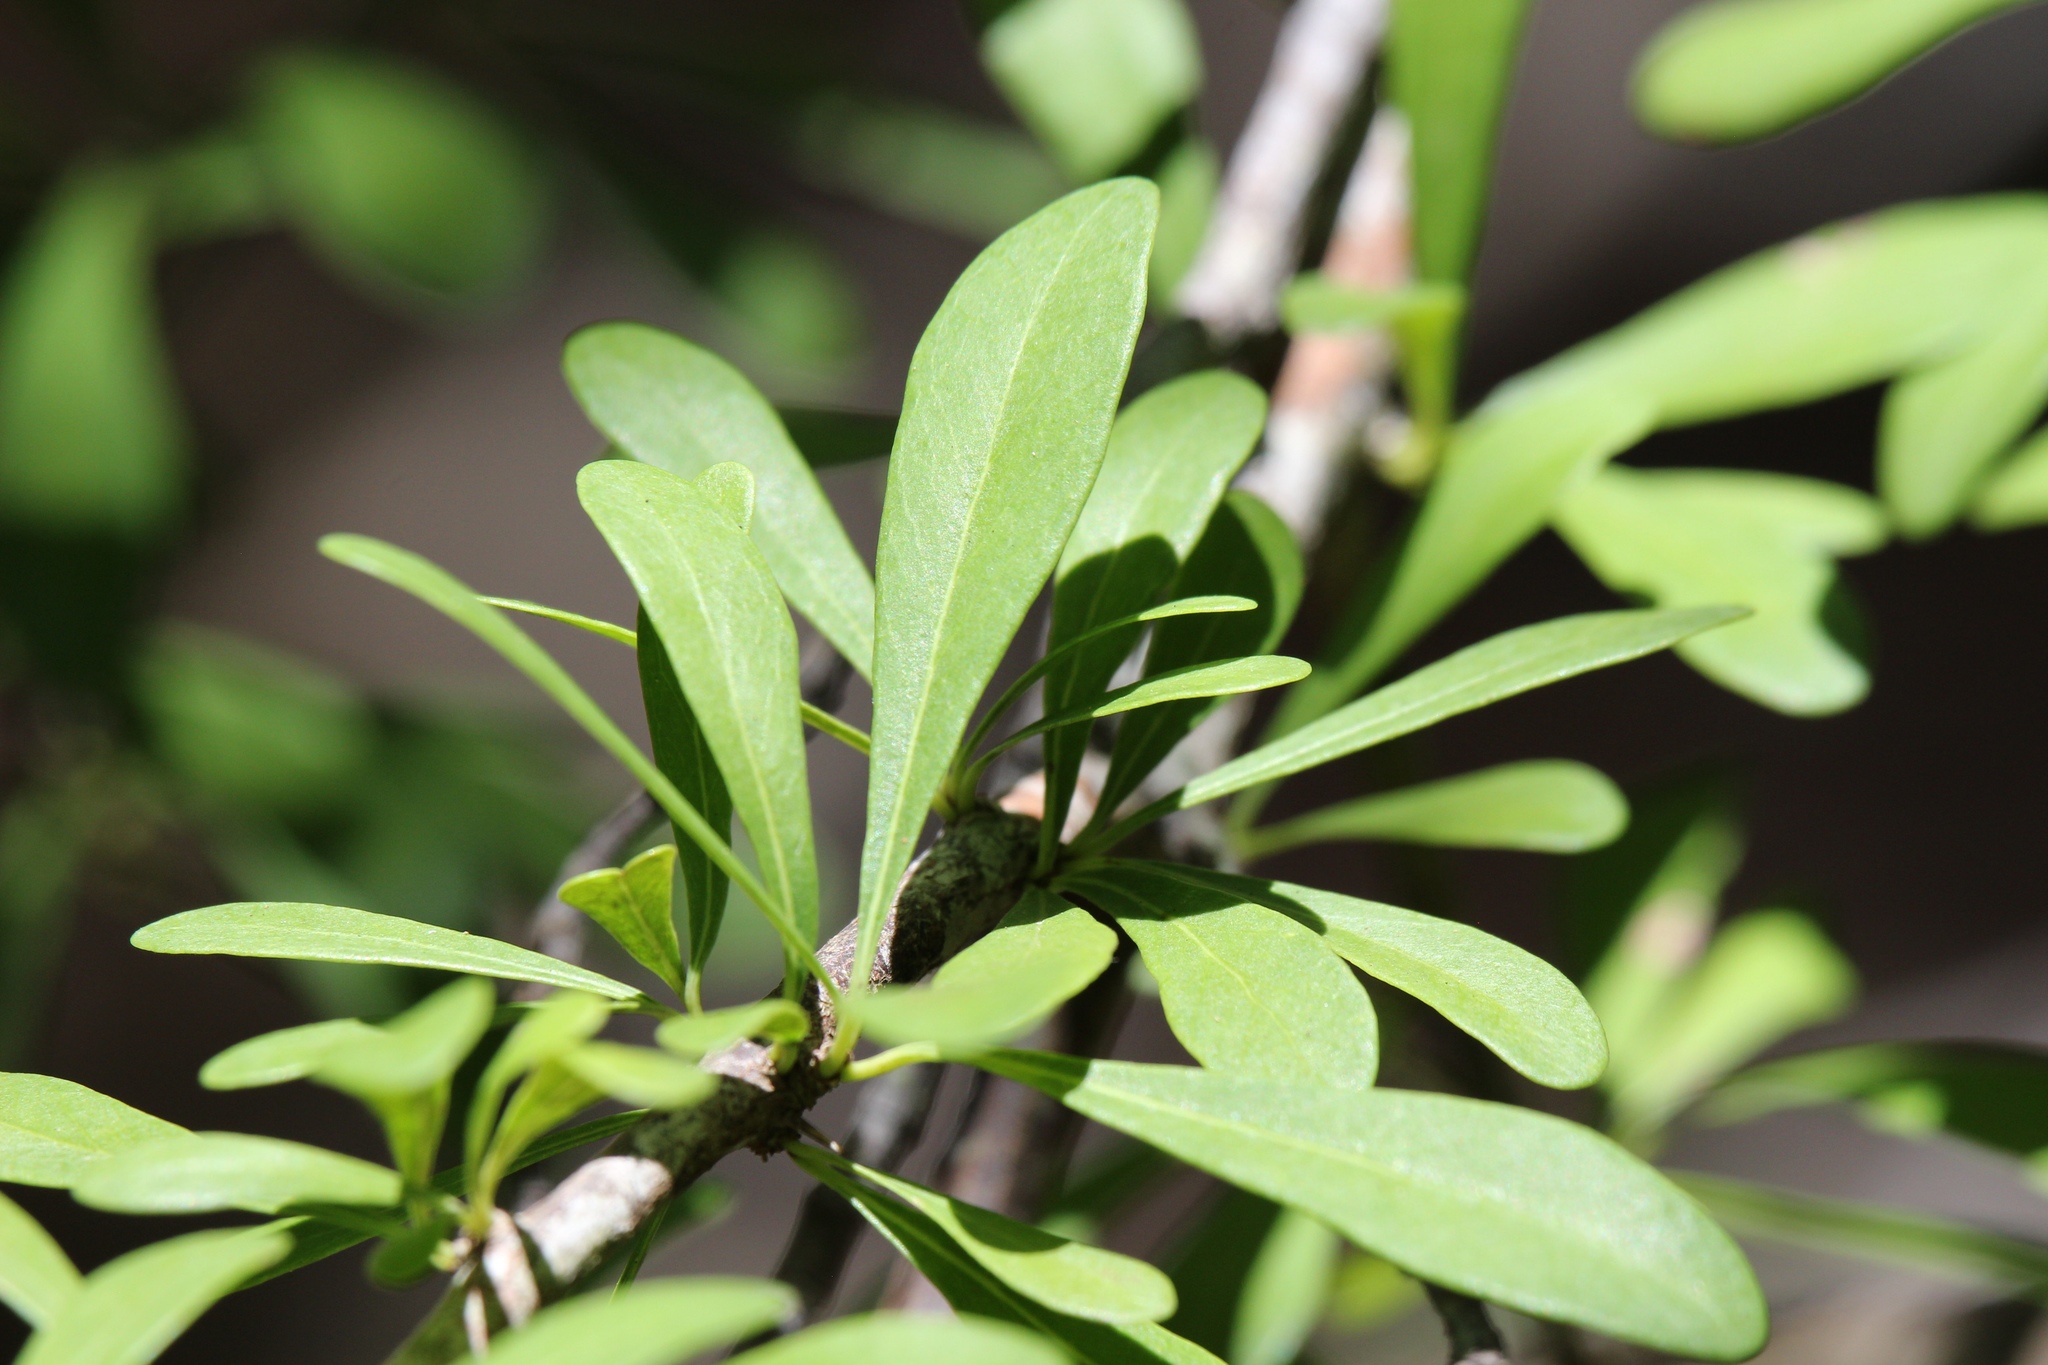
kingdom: Plantae
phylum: Tracheophyta
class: Magnoliopsida
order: Ericales
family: Sapotaceae
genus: Sideroxylon
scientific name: Sideroxylon celastrinum
